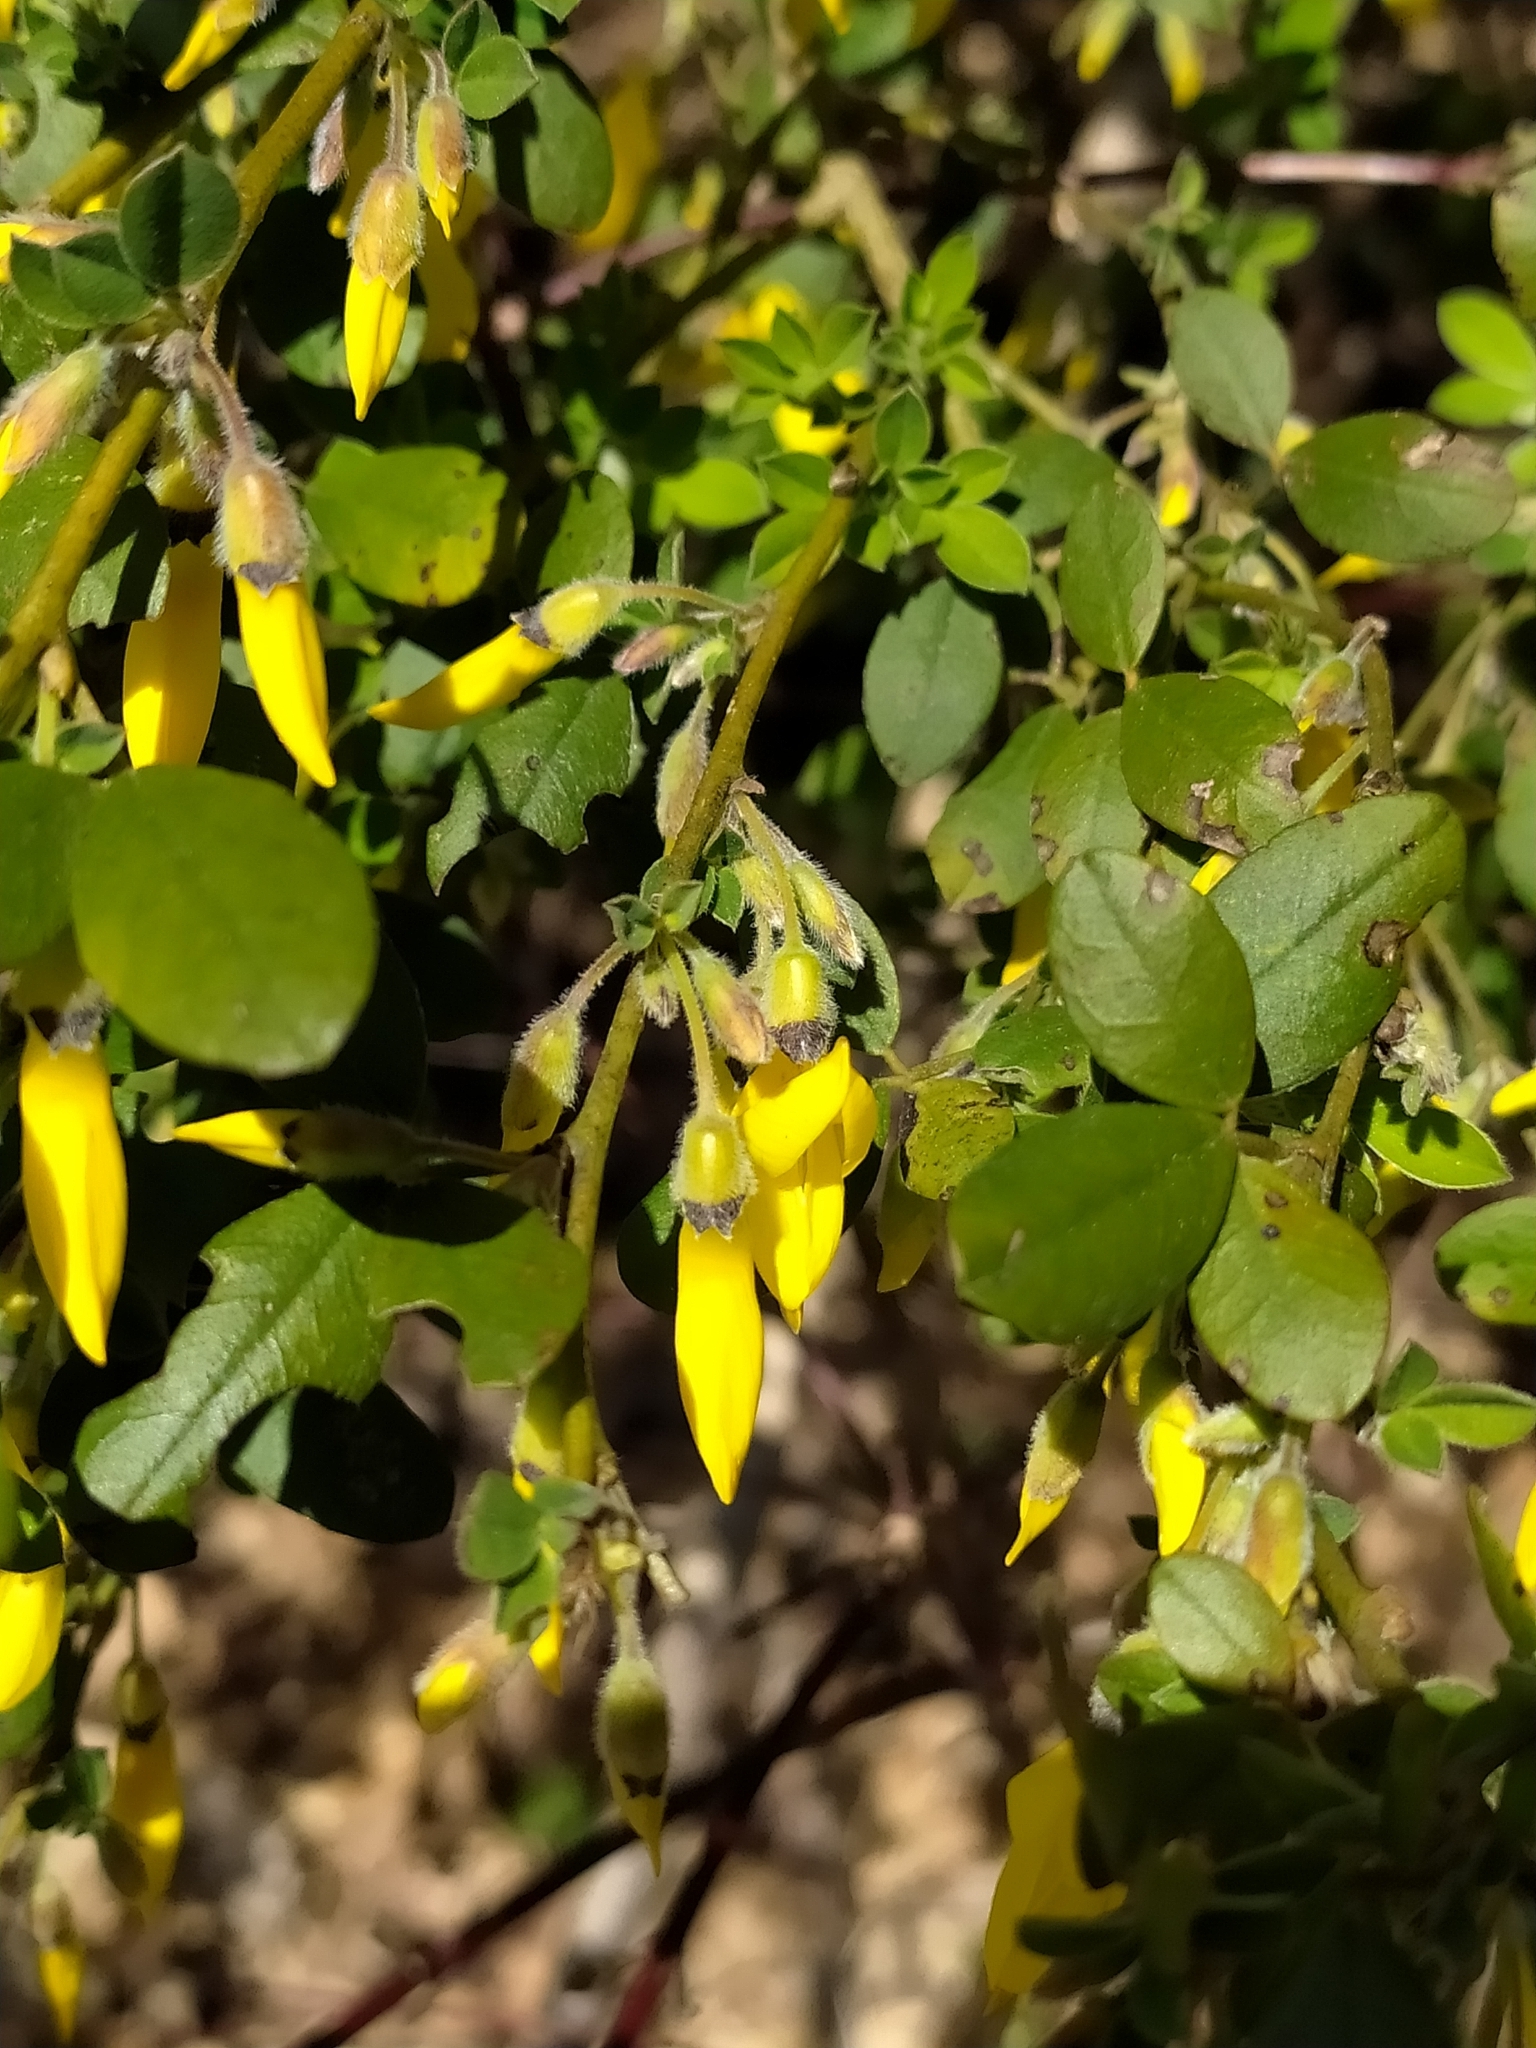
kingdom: Plantae
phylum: Tracheophyta
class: Magnoliopsida
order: Fabales
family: Fabaceae
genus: Cytisus
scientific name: Cytisus villosus
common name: Hairybroom
